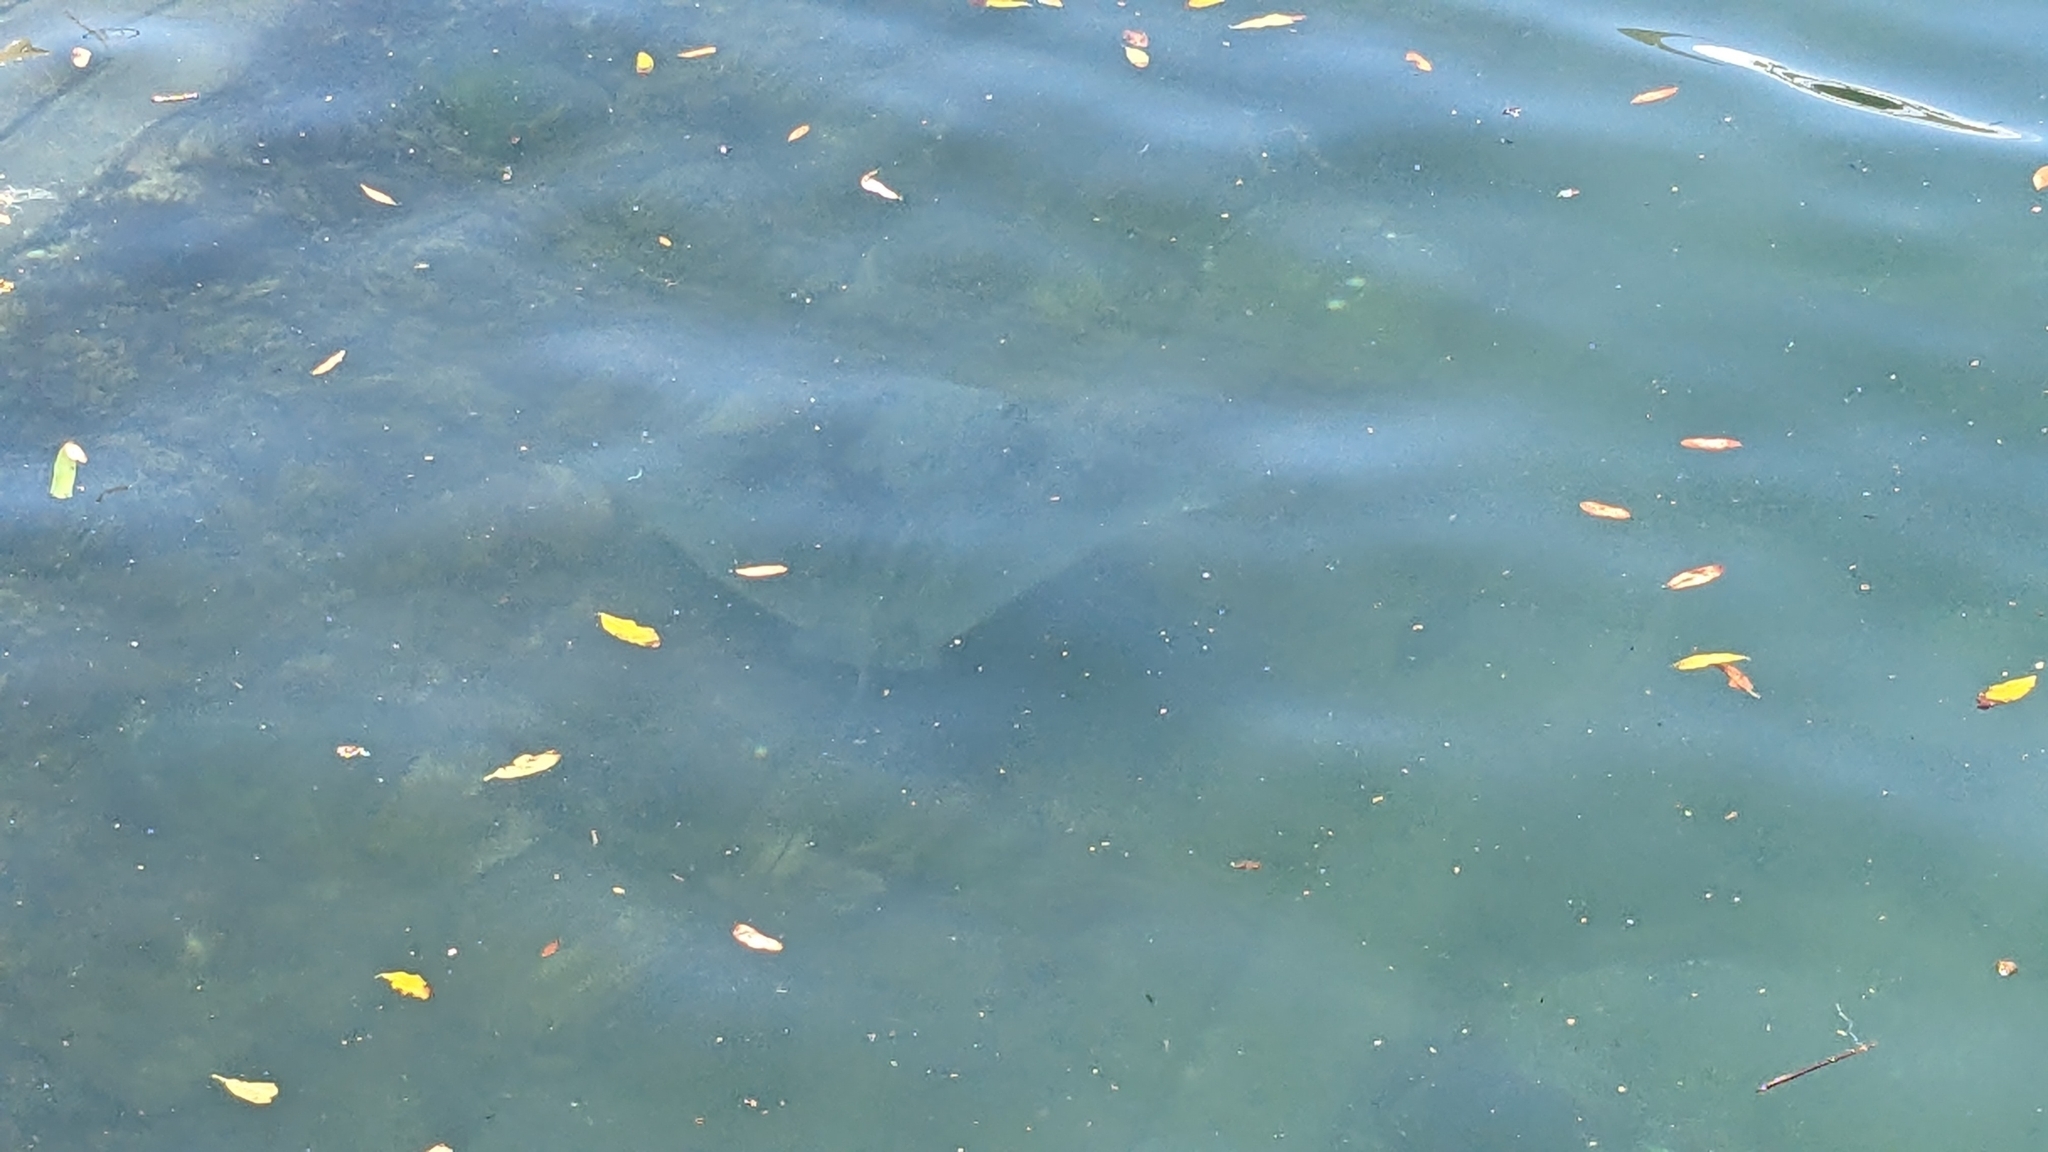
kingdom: Animalia
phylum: Chordata
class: Elasmobranchii
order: Myliobatiformes
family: Myliobatidae
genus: Myliobatis
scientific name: Myliobatis tenuicaudatus
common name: Eagle ray
